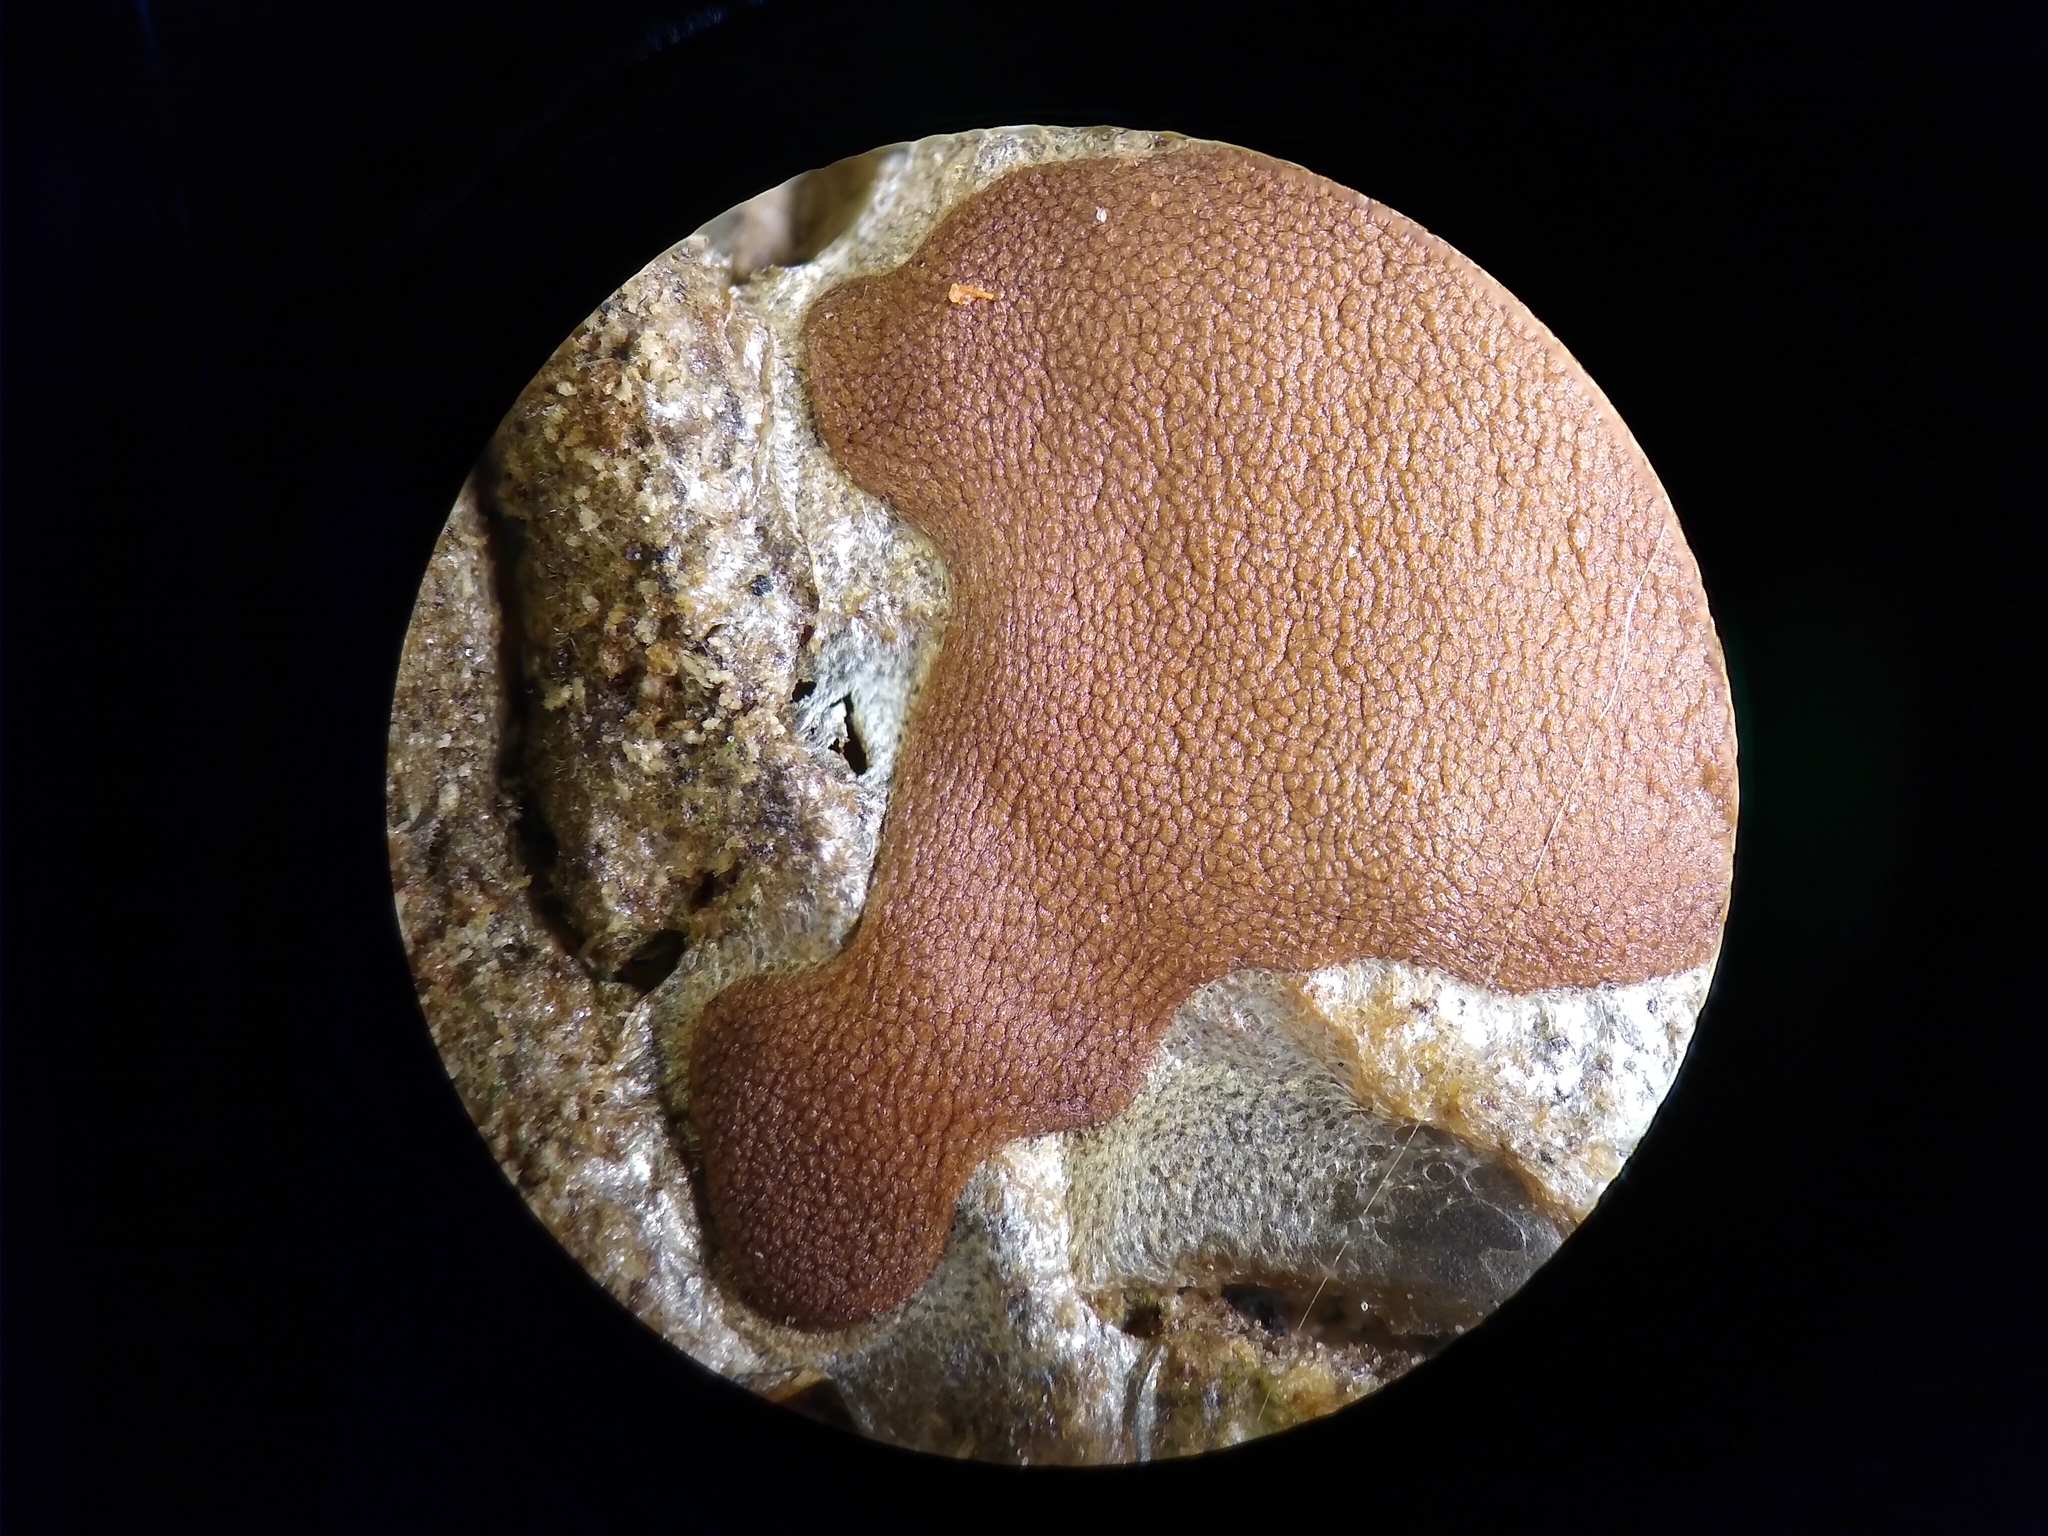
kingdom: Protozoa
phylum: Mycetozoa
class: Myxomycetes
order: Trichiales
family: Dictydiaethaliaceae
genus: Dictydiaethalium
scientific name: Dictydiaethalium plumbeum
